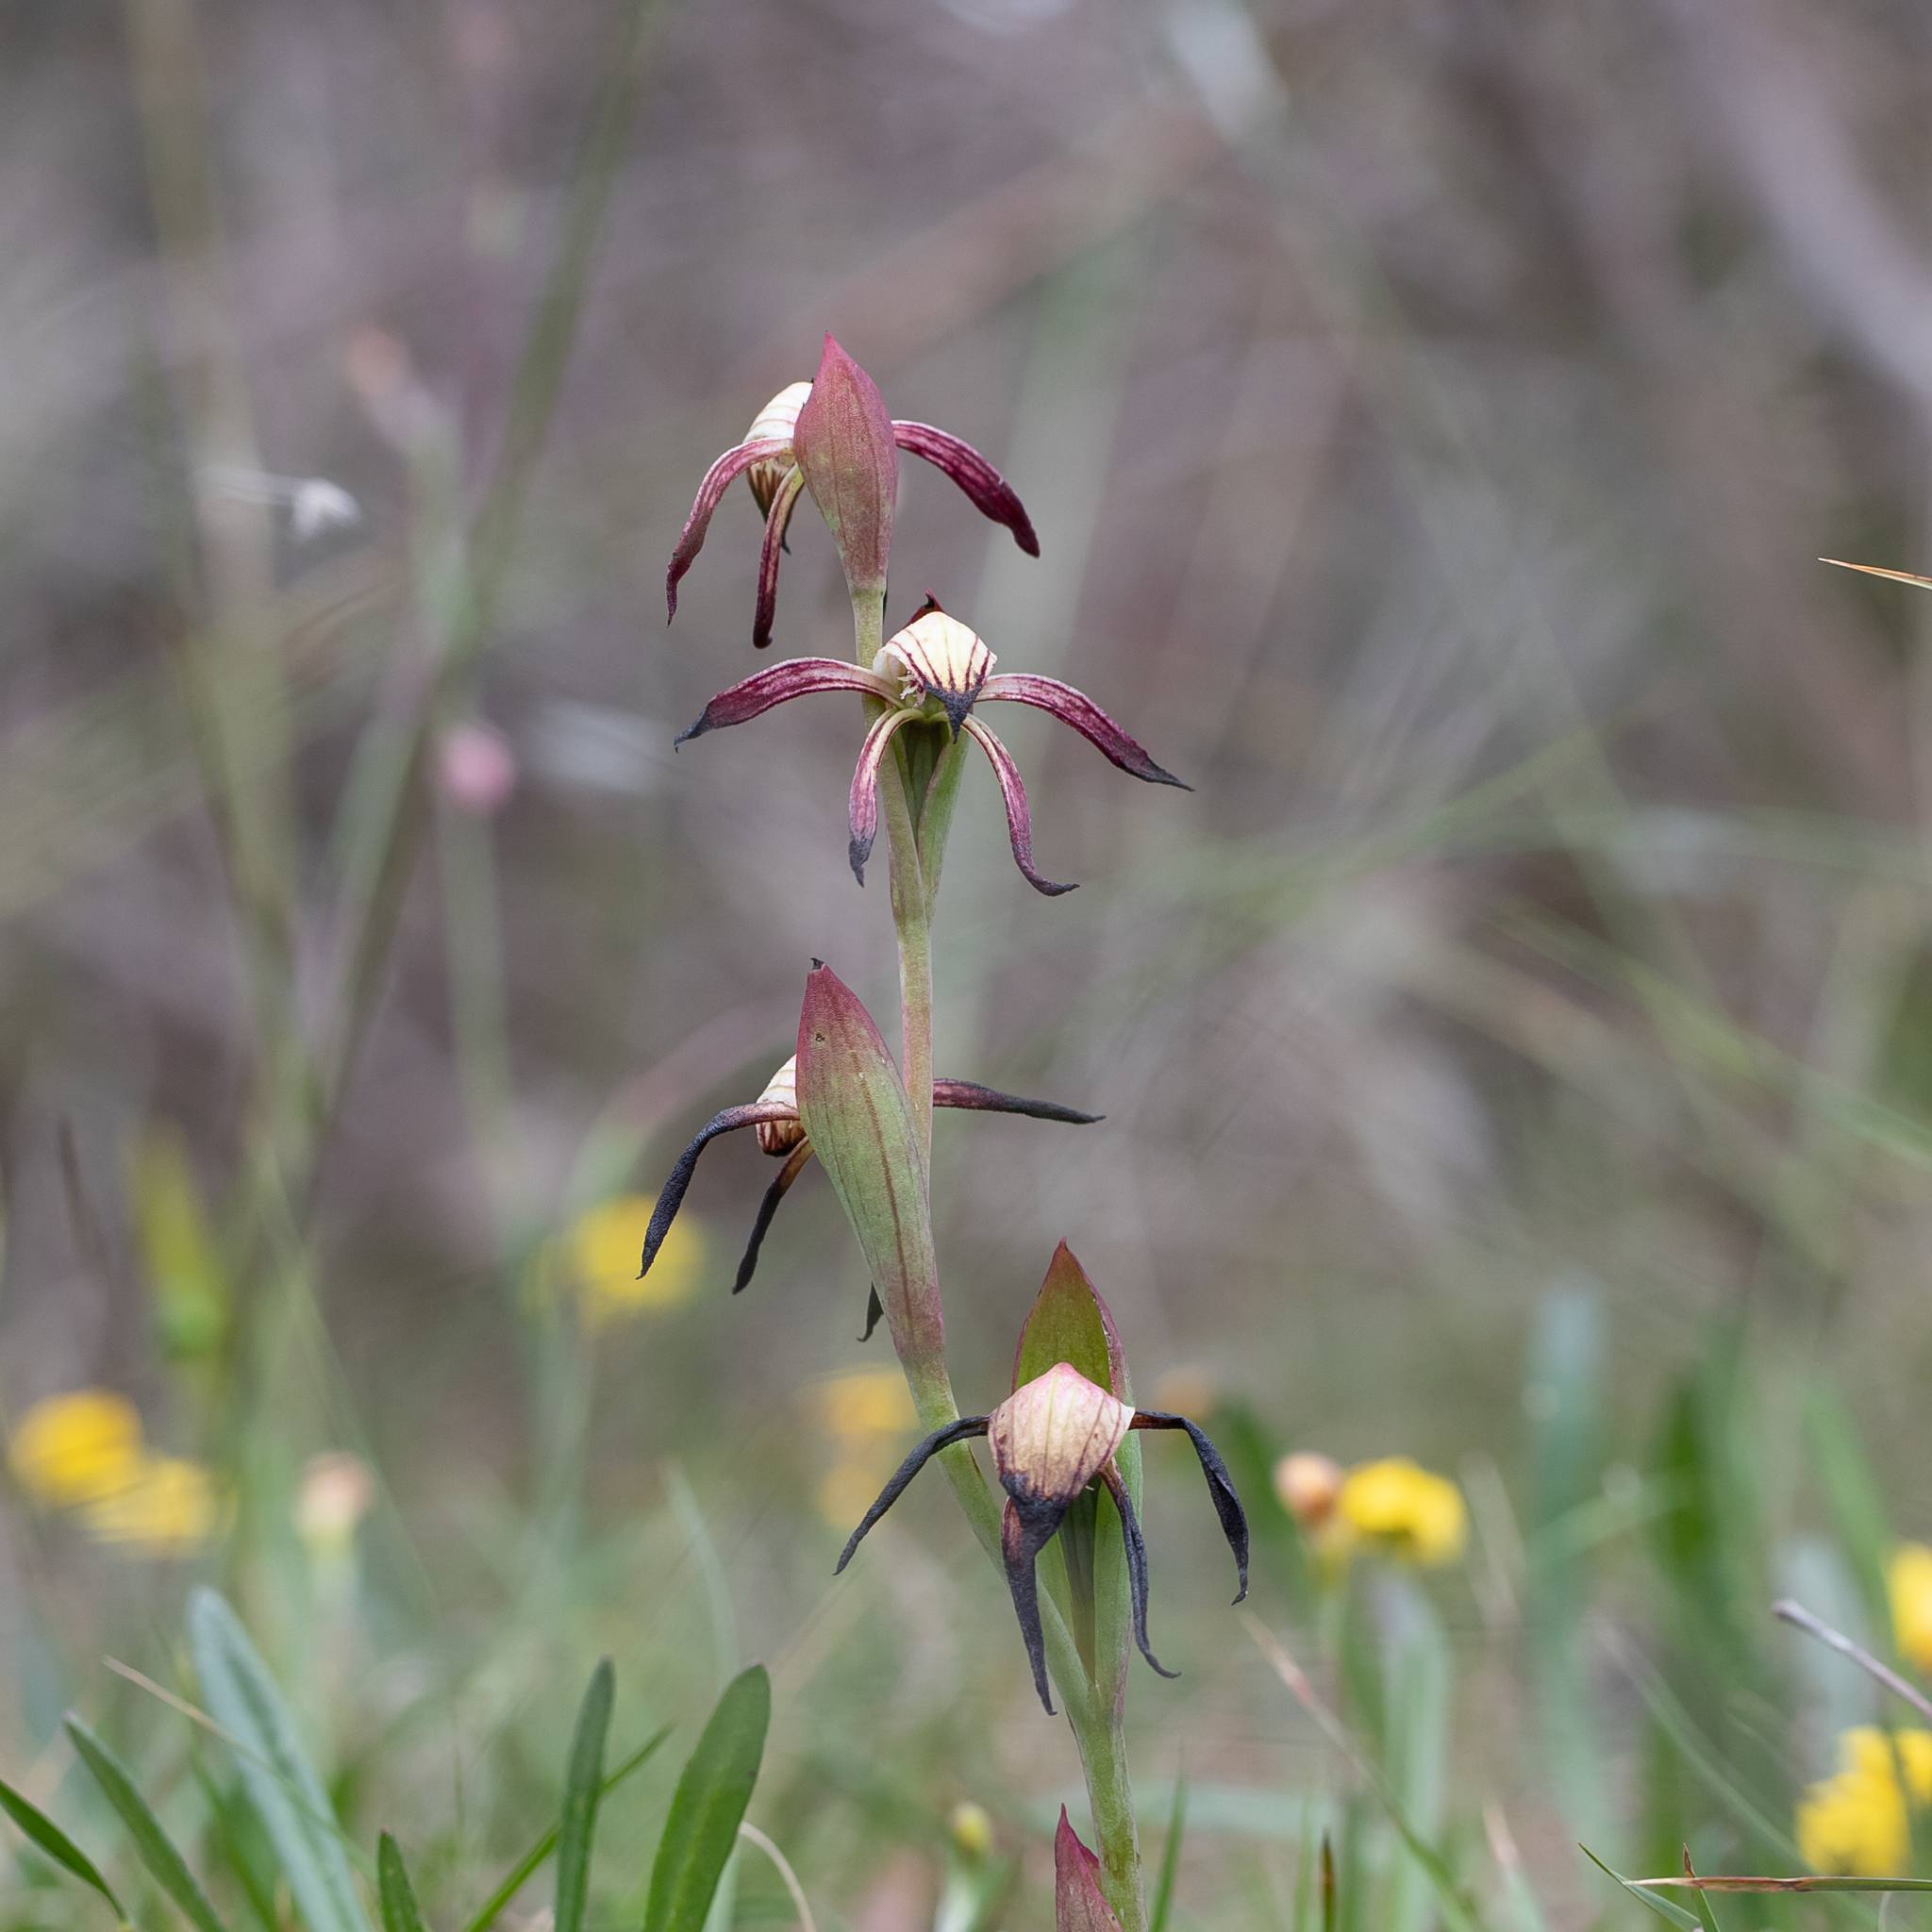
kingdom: Plantae
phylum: Tracheophyta
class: Liliopsida
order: Asparagales
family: Orchidaceae
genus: Pyrorchis
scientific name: Pyrorchis nigricans
